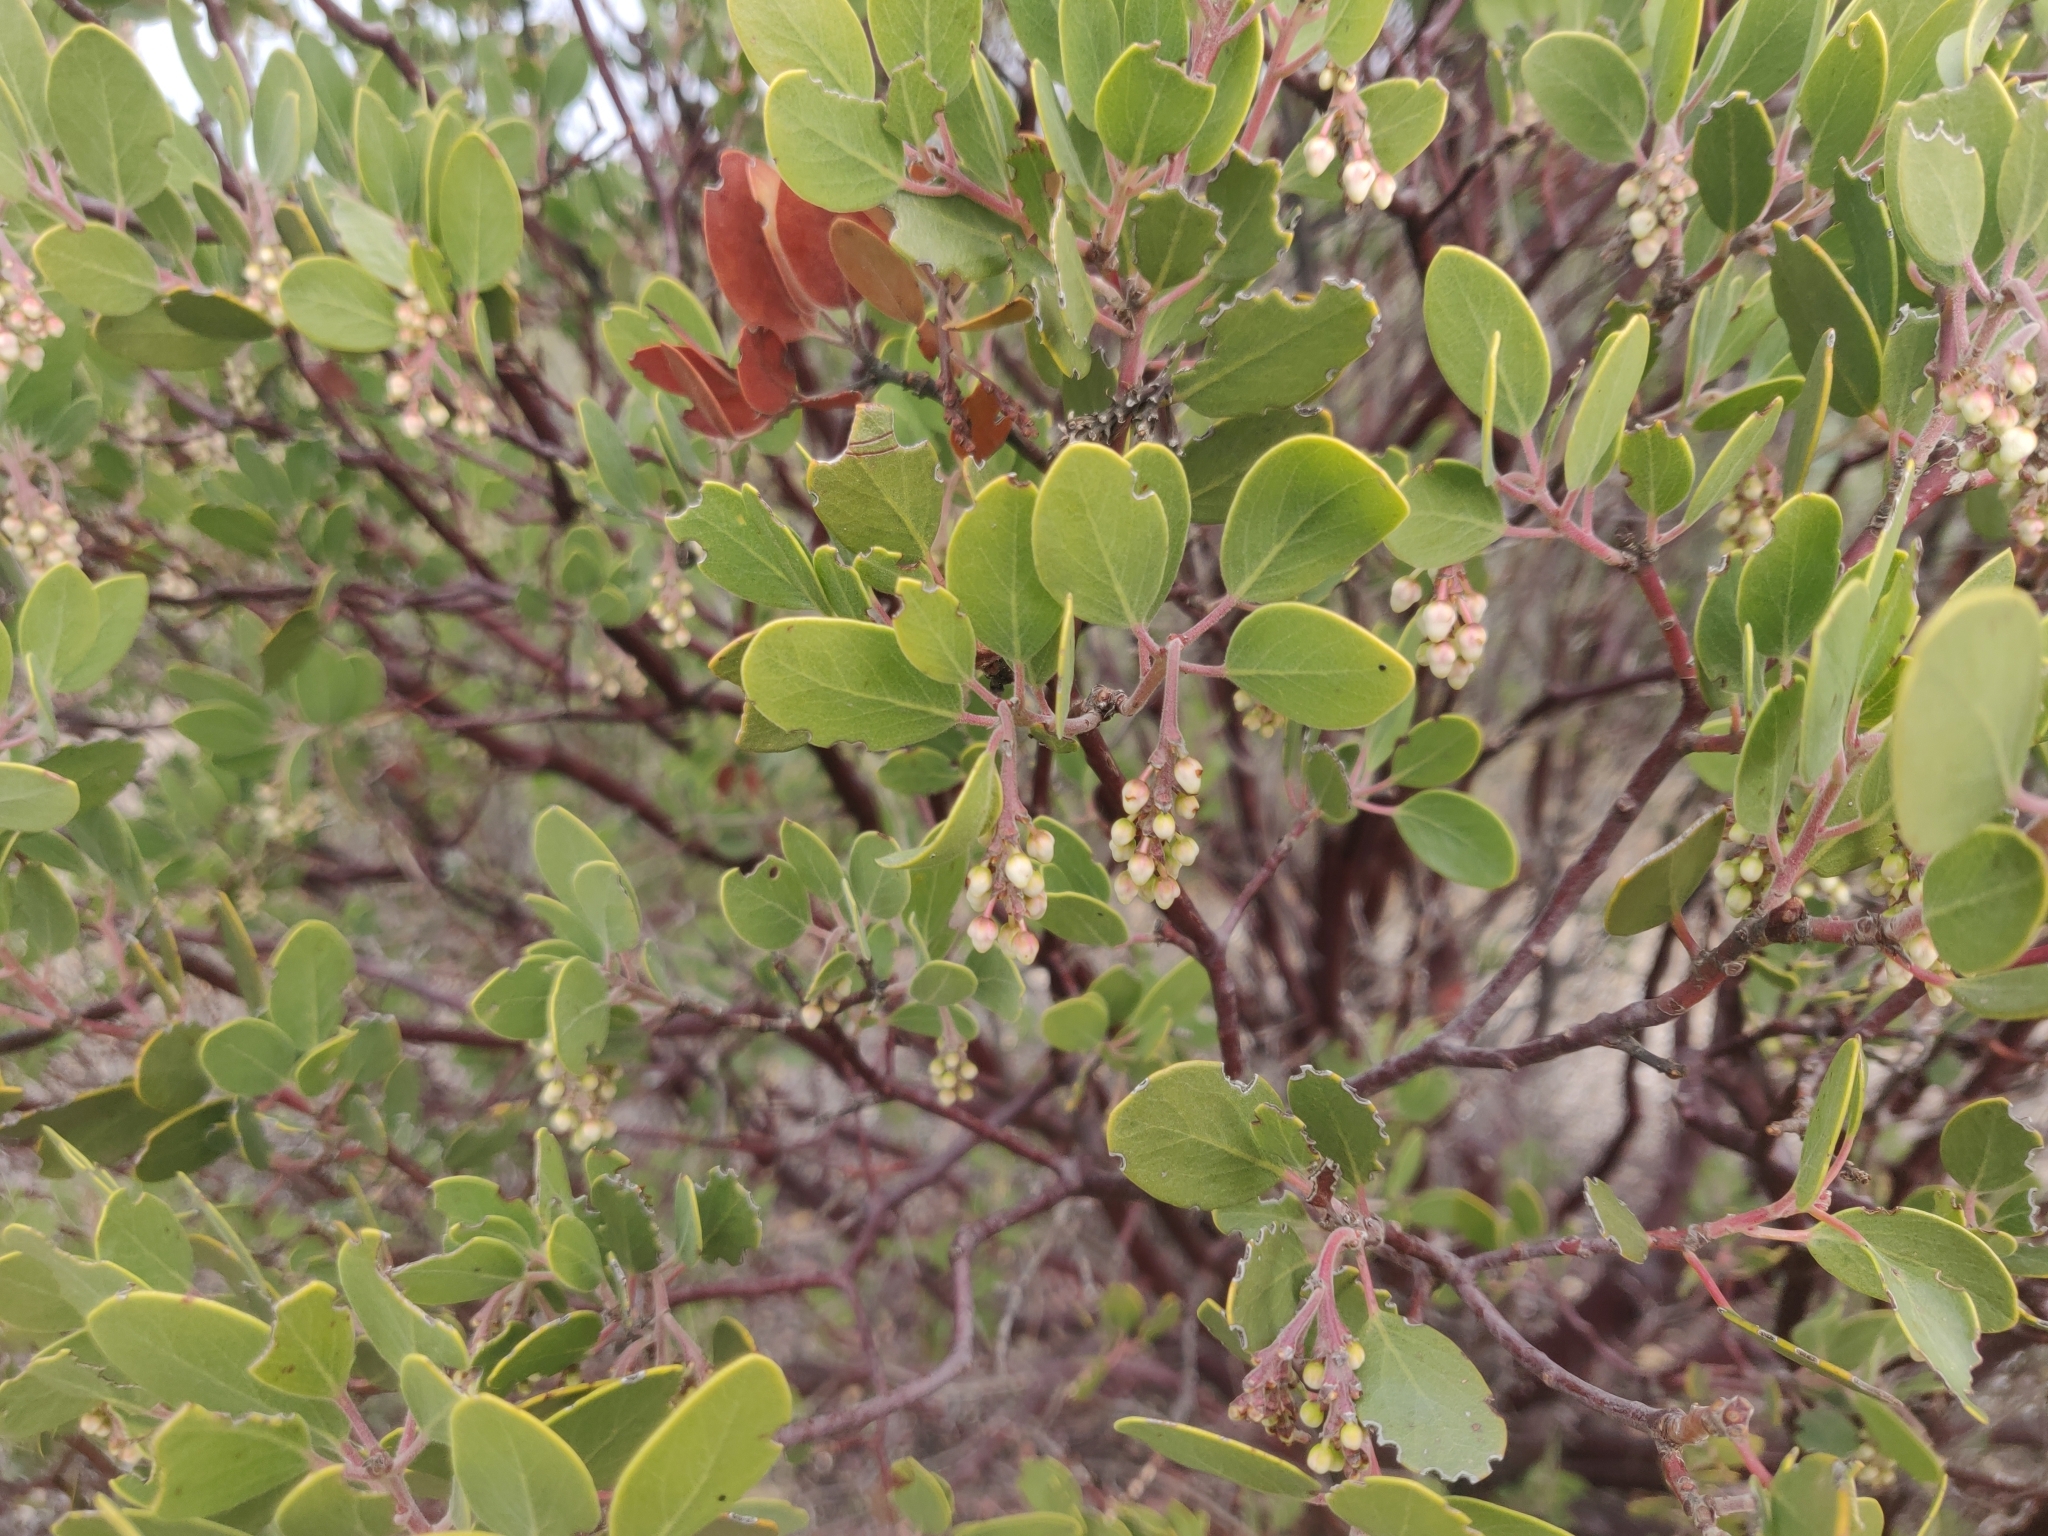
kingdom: Plantae
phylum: Tracheophyta
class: Magnoliopsida
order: Ericales
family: Ericaceae
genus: Arctostaphylos
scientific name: Arctostaphylos manzanita
